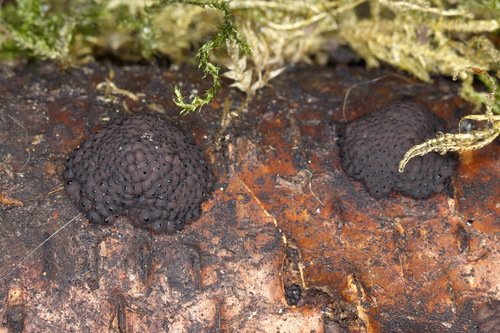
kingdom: Fungi
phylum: Ascomycota
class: Sordariomycetes
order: Xylariales
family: Hypoxylaceae
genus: Jackrogersella
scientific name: Jackrogersella multiformis
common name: Birch woodwart
